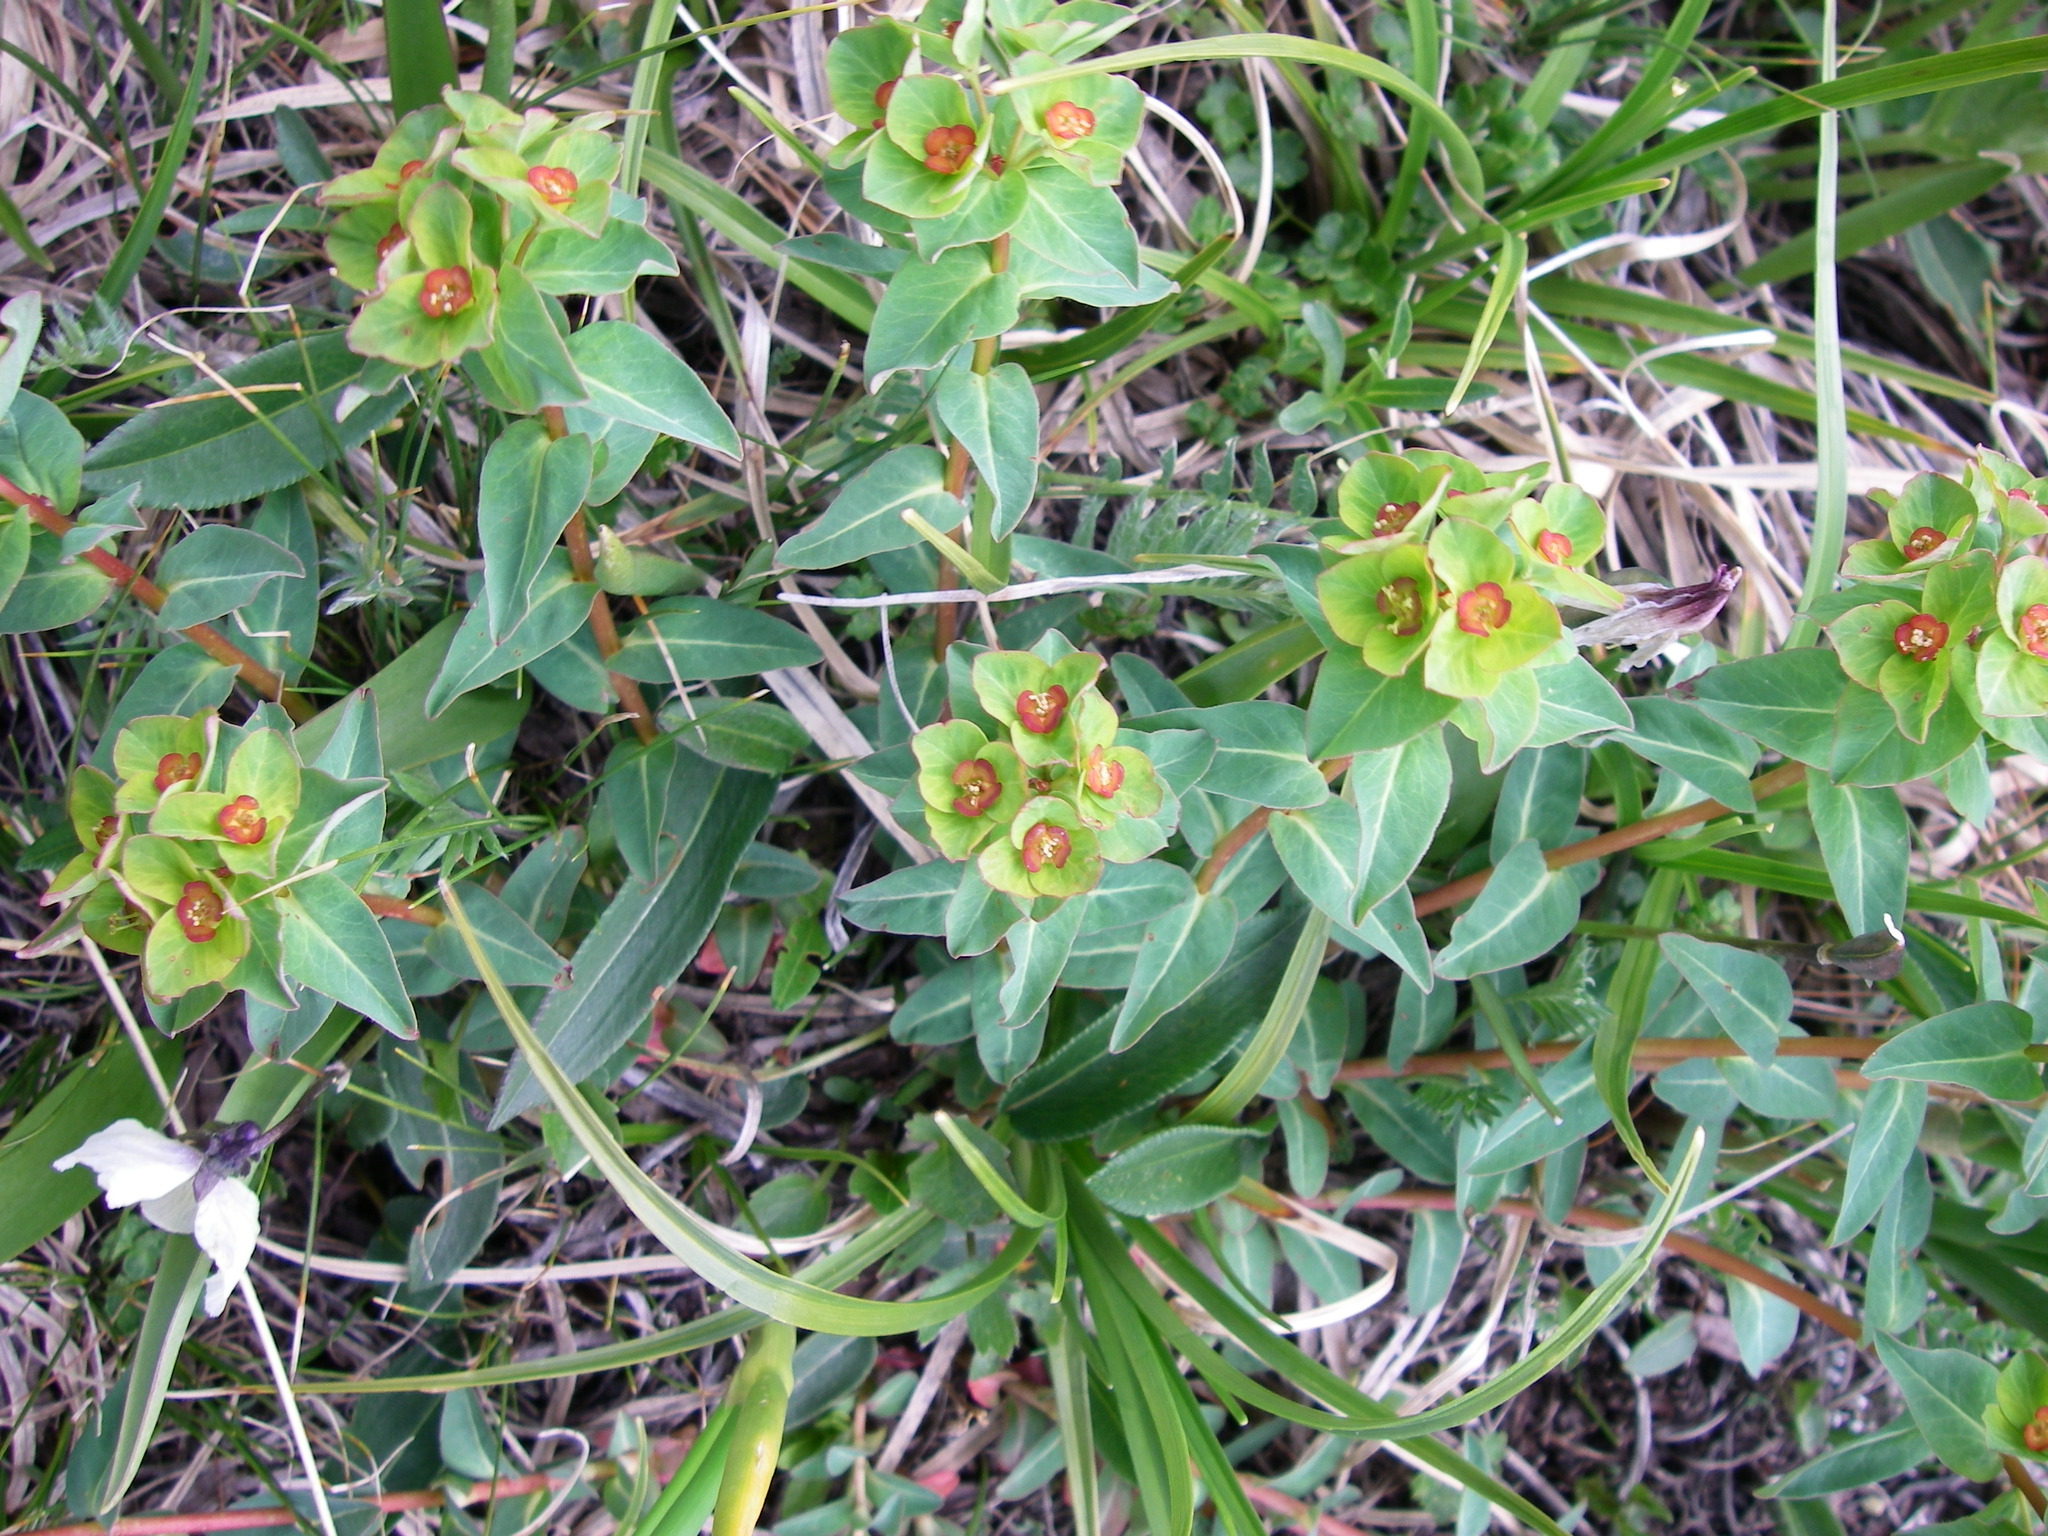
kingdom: Plantae
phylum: Tracheophyta
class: Magnoliopsida
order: Malpighiales
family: Euphorbiaceae
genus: Euphorbia
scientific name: Euphorbia alatavica
